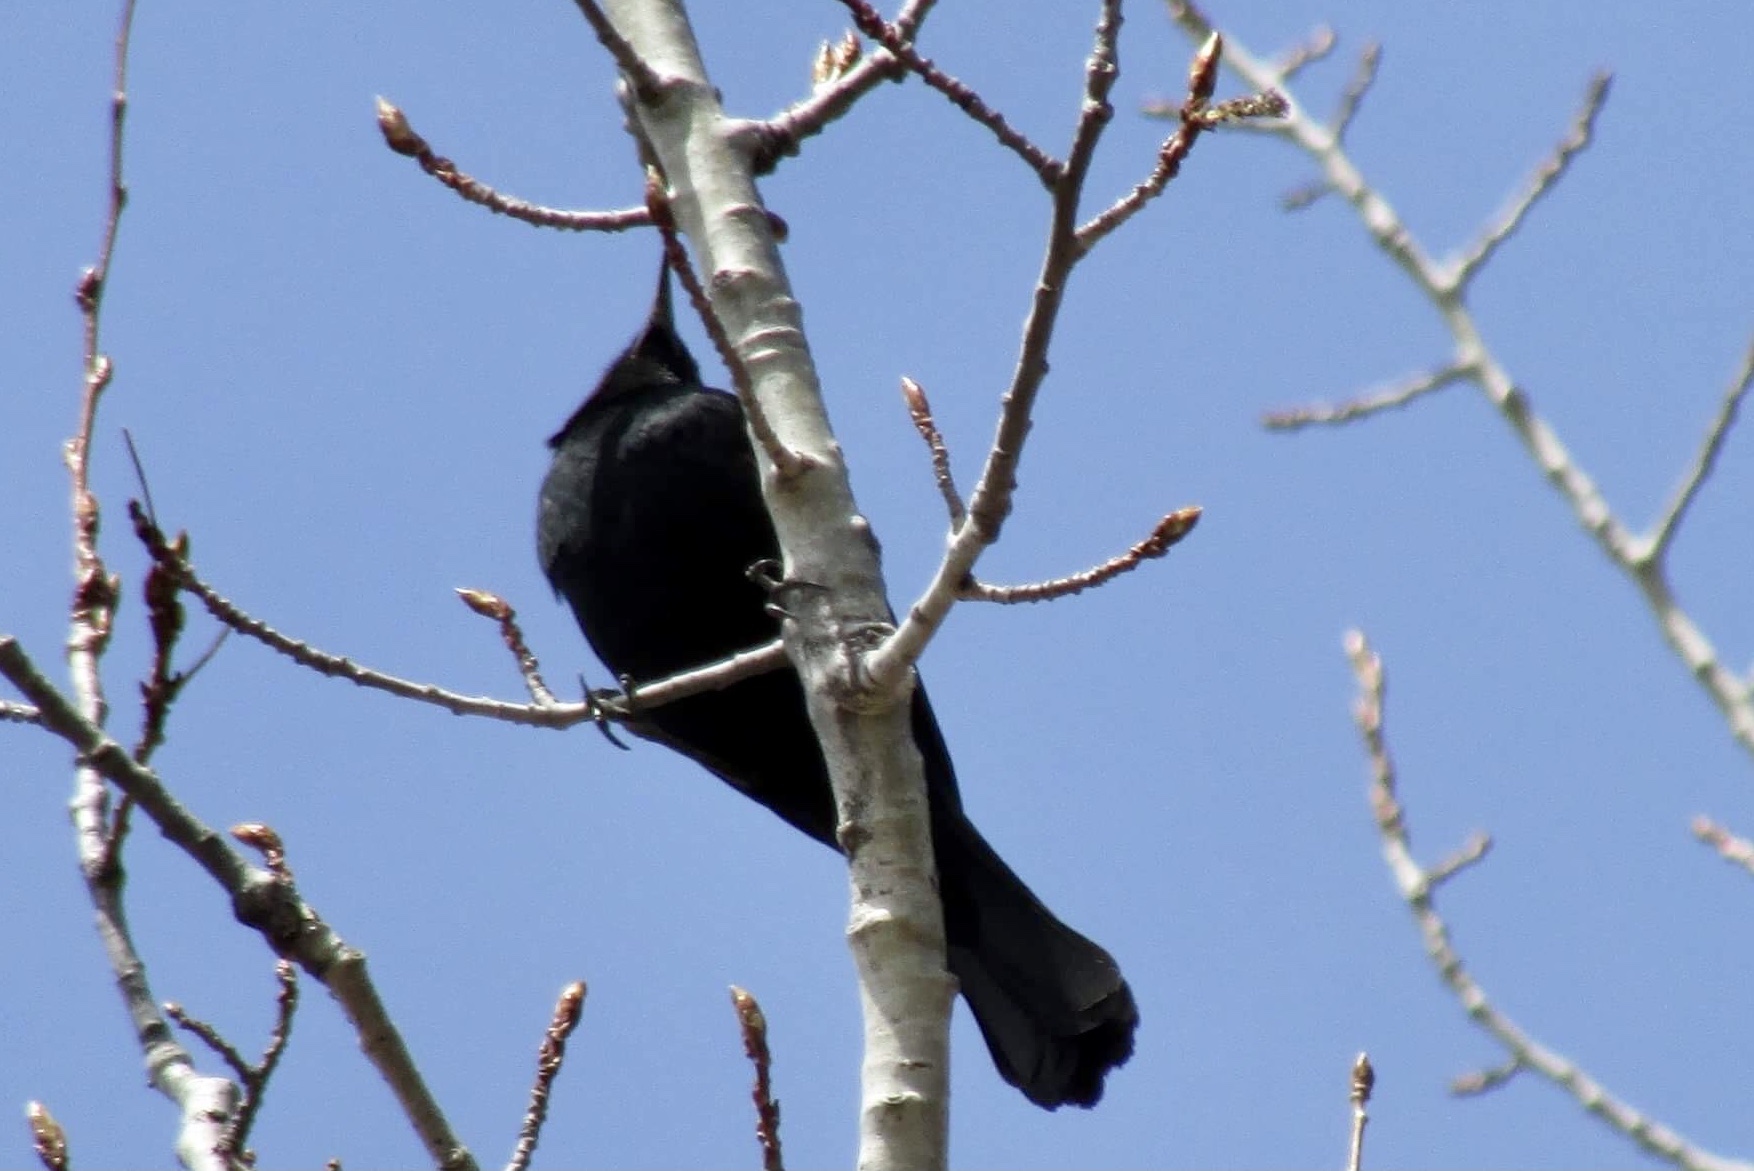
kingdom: Animalia
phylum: Chordata
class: Aves
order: Passeriformes
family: Icteridae
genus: Quiscalus
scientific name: Quiscalus quiscula
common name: Common grackle
